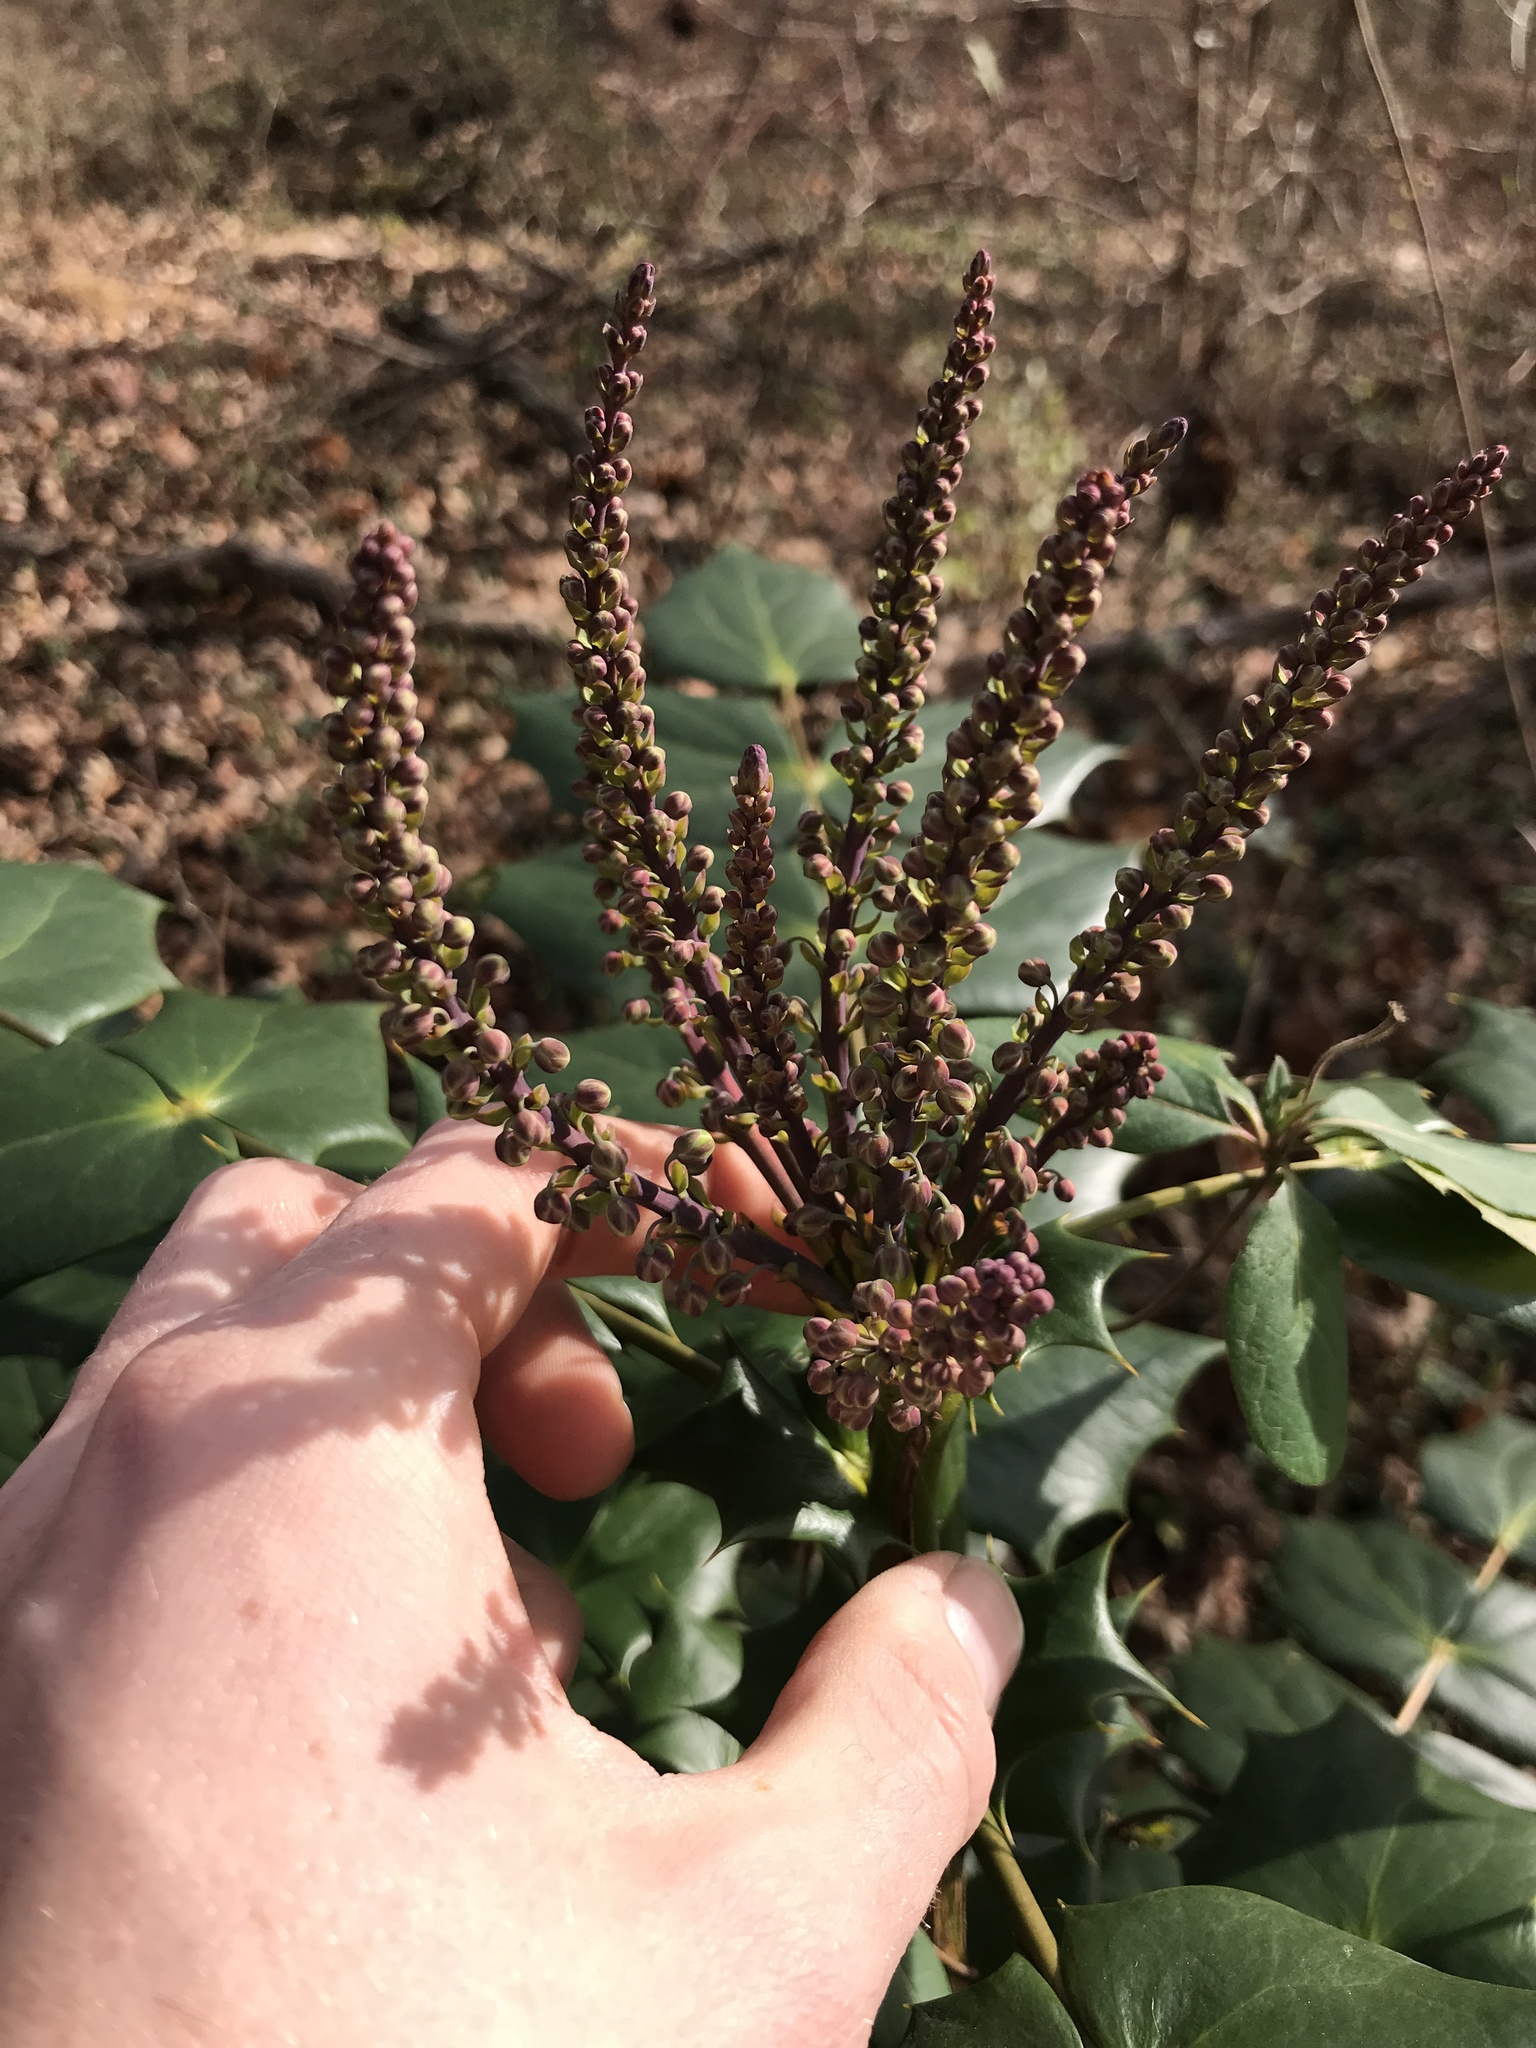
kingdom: Plantae
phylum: Tracheophyta
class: Magnoliopsida
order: Ranunculales
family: Berberidaceae
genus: Mahonia
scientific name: Mahonia bealei
